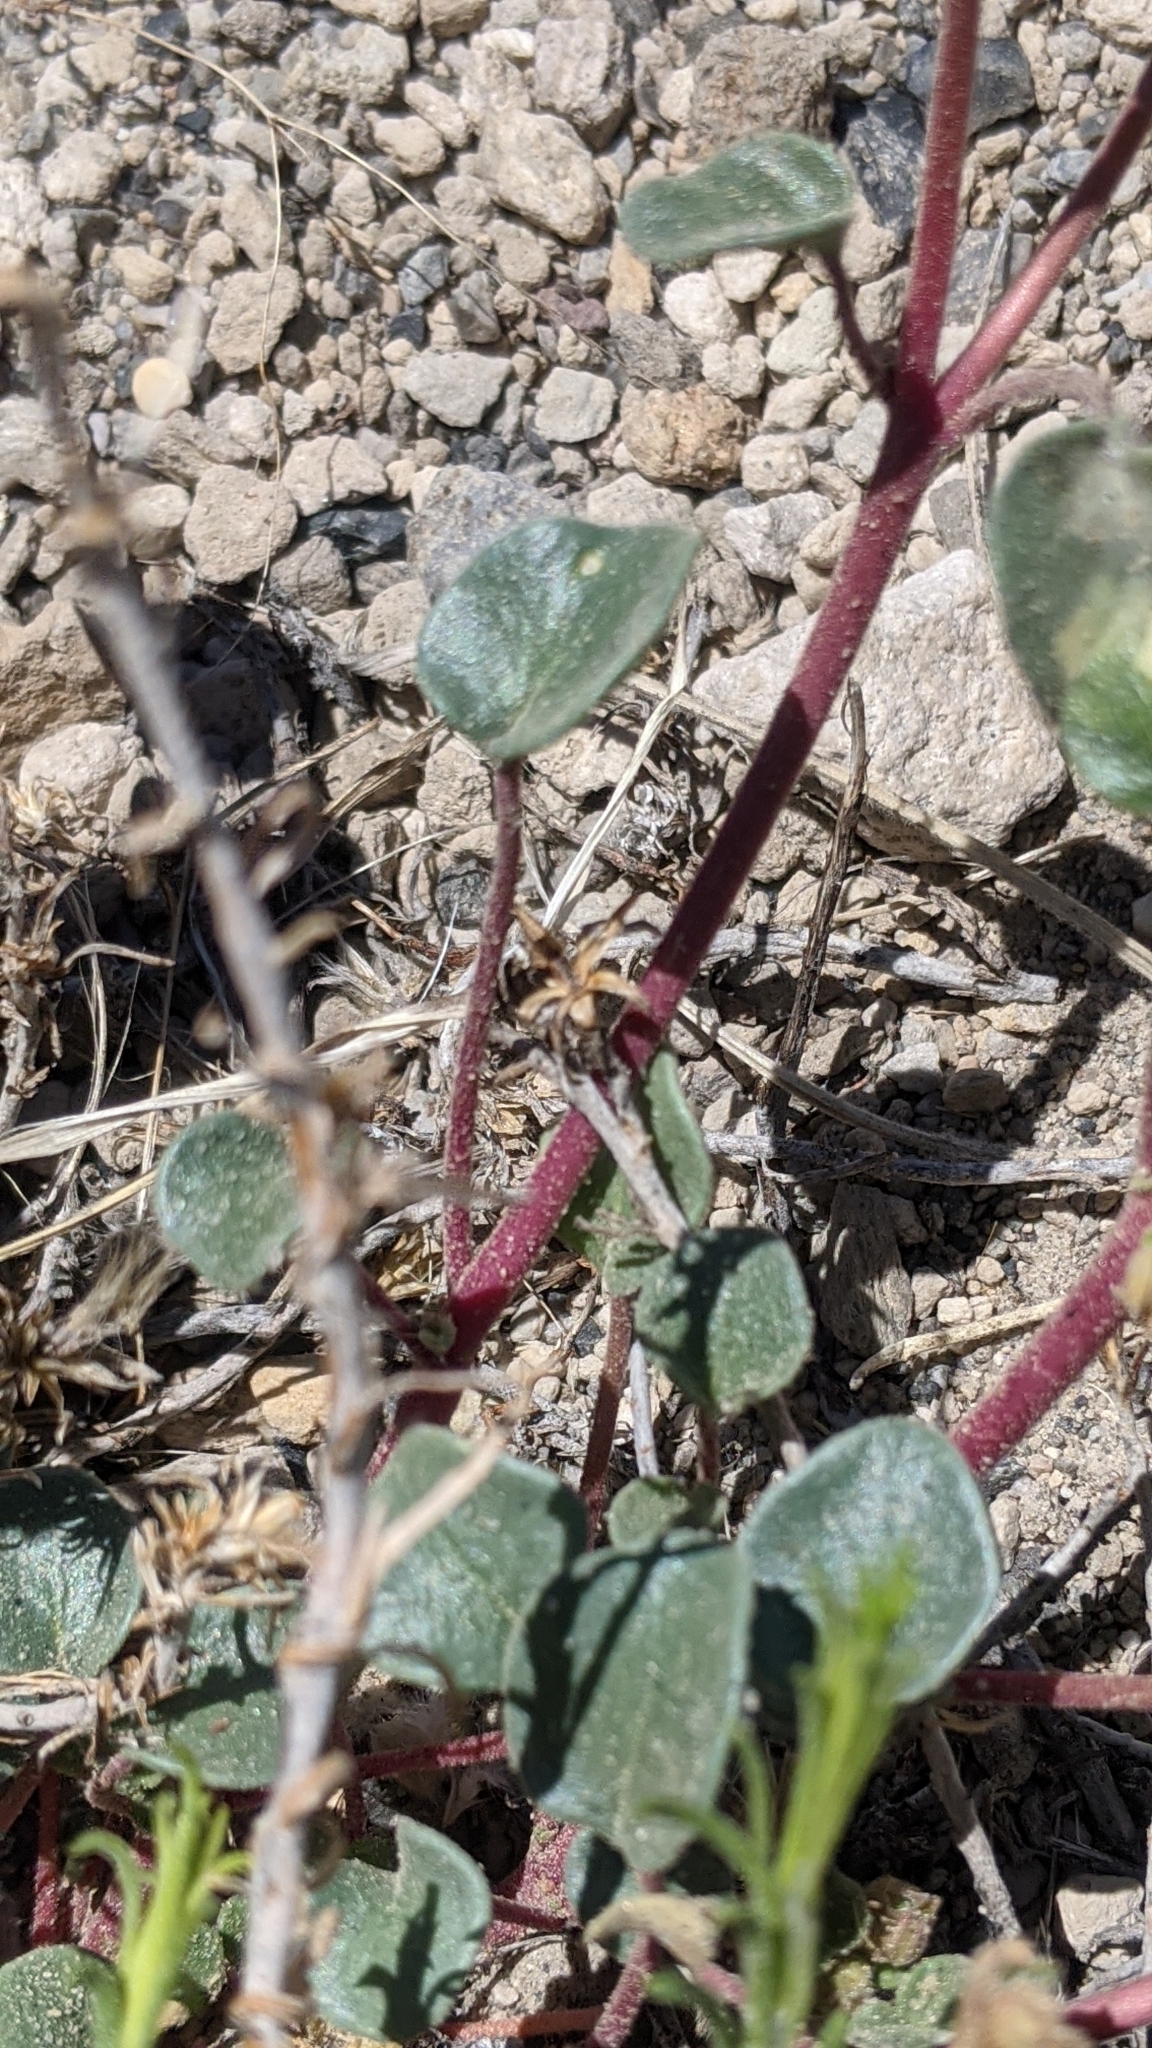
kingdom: Plantae
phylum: Tracheophyta
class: Magnoliopsida
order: Caryophyllales
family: Nyctaginaceae
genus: Abronia
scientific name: Abronia turbinata
